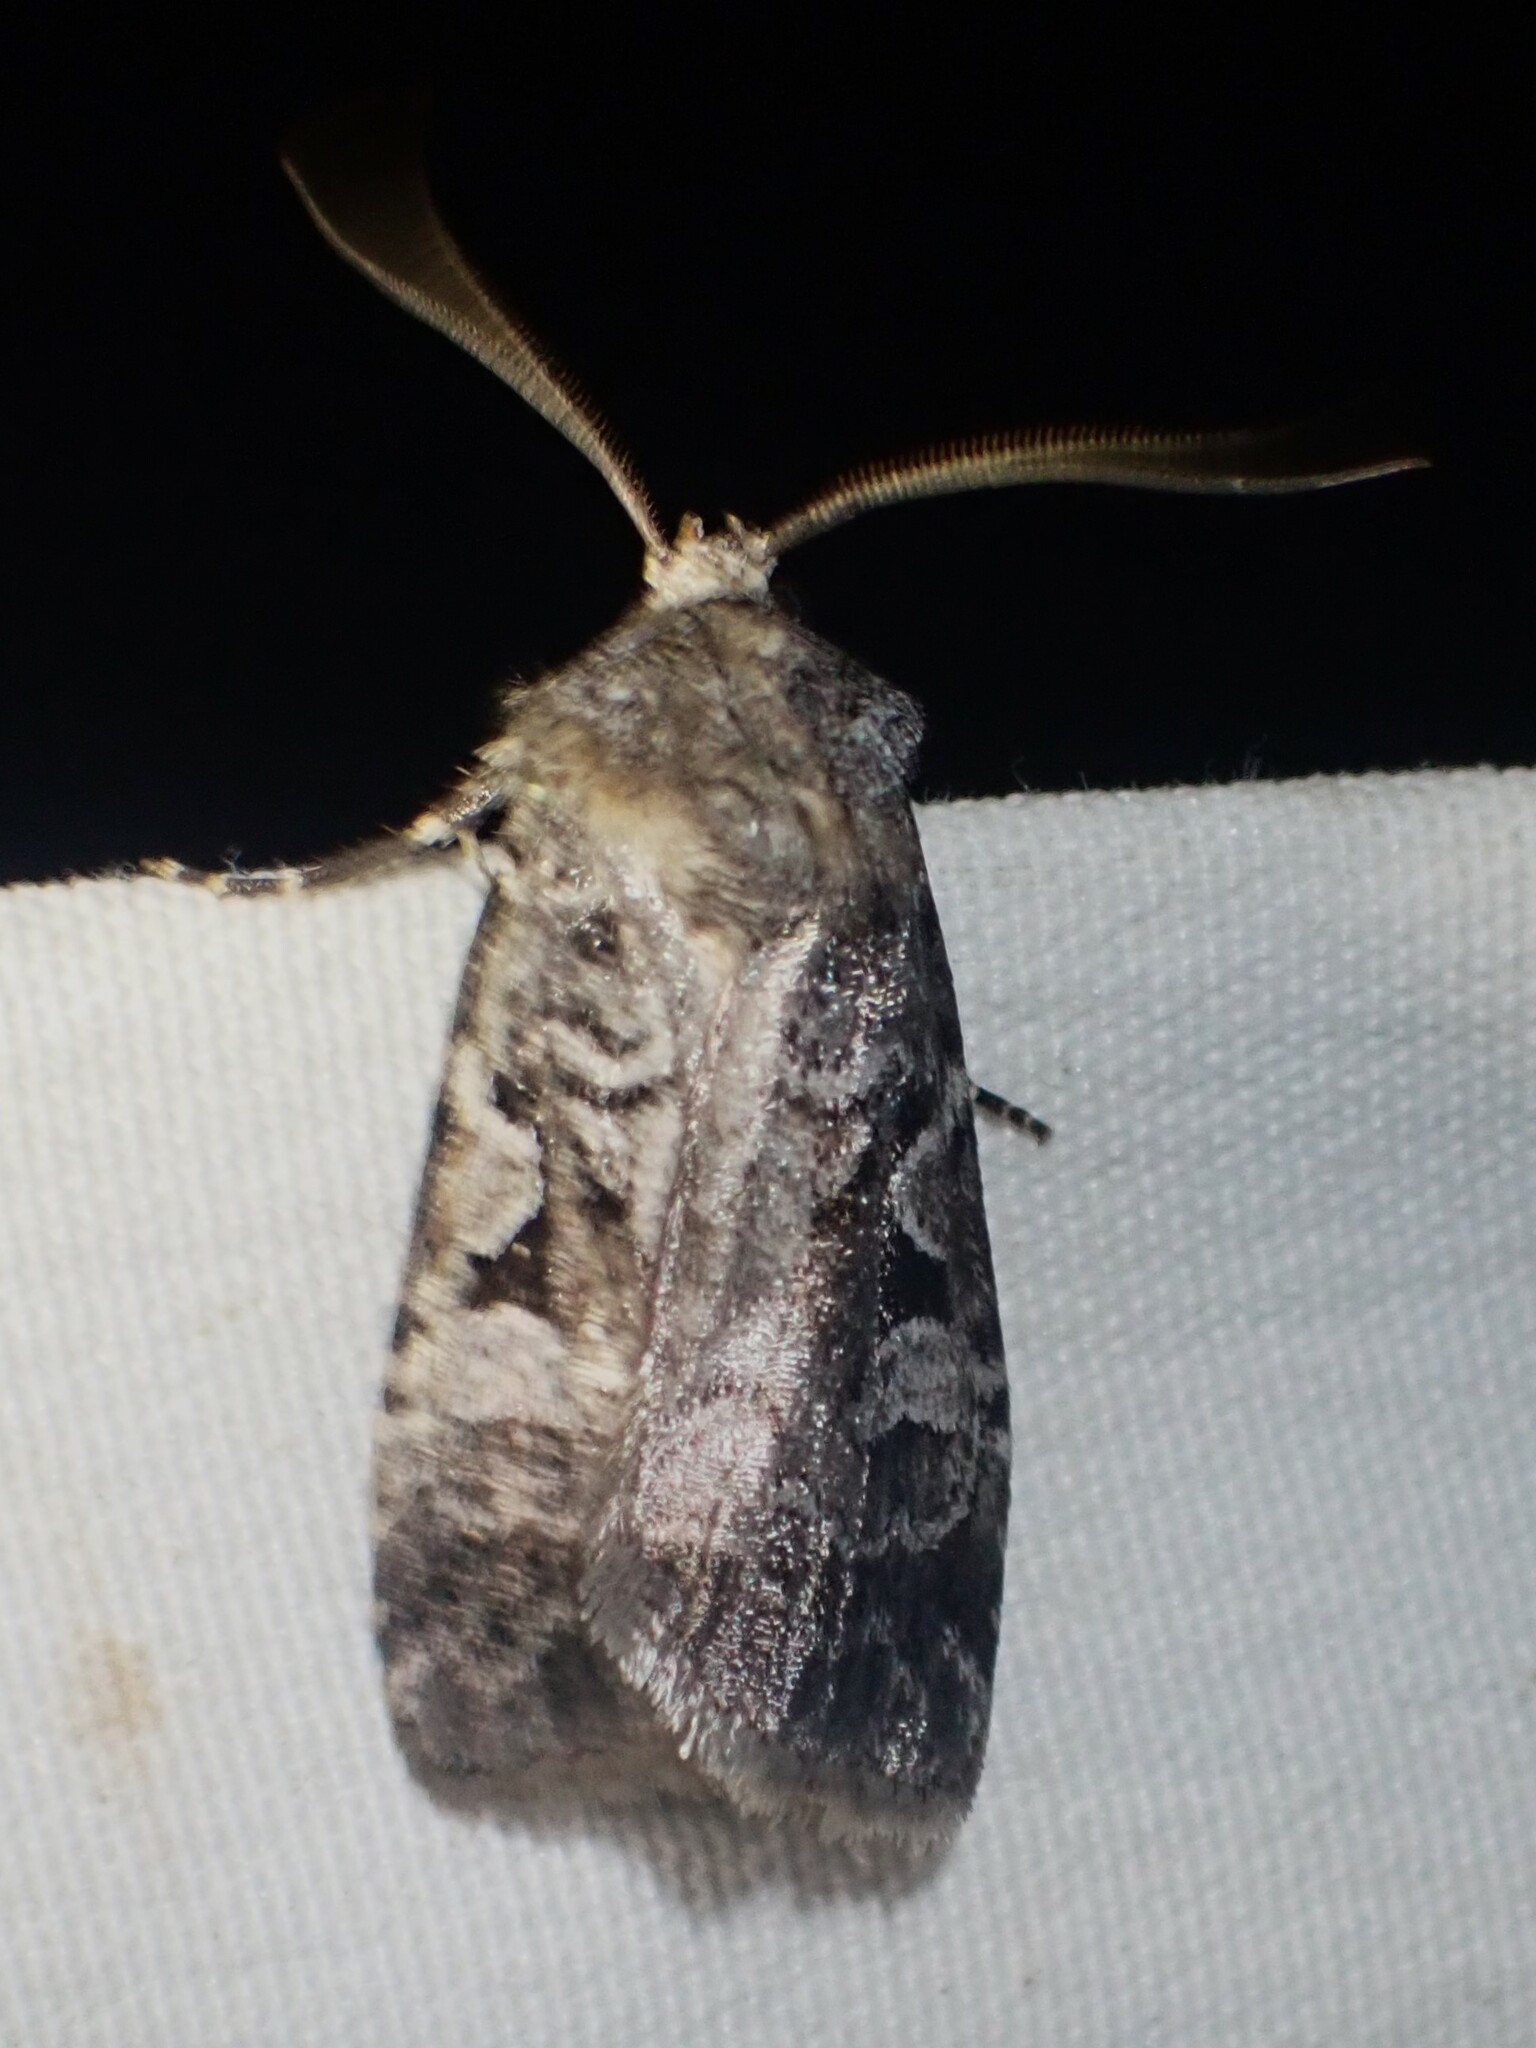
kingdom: Animalia
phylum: Arthropoda
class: Insecta
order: Lepidoptera
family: Noctuidae
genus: Feltia
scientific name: Feltia geniculata
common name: Knee-joint dart
